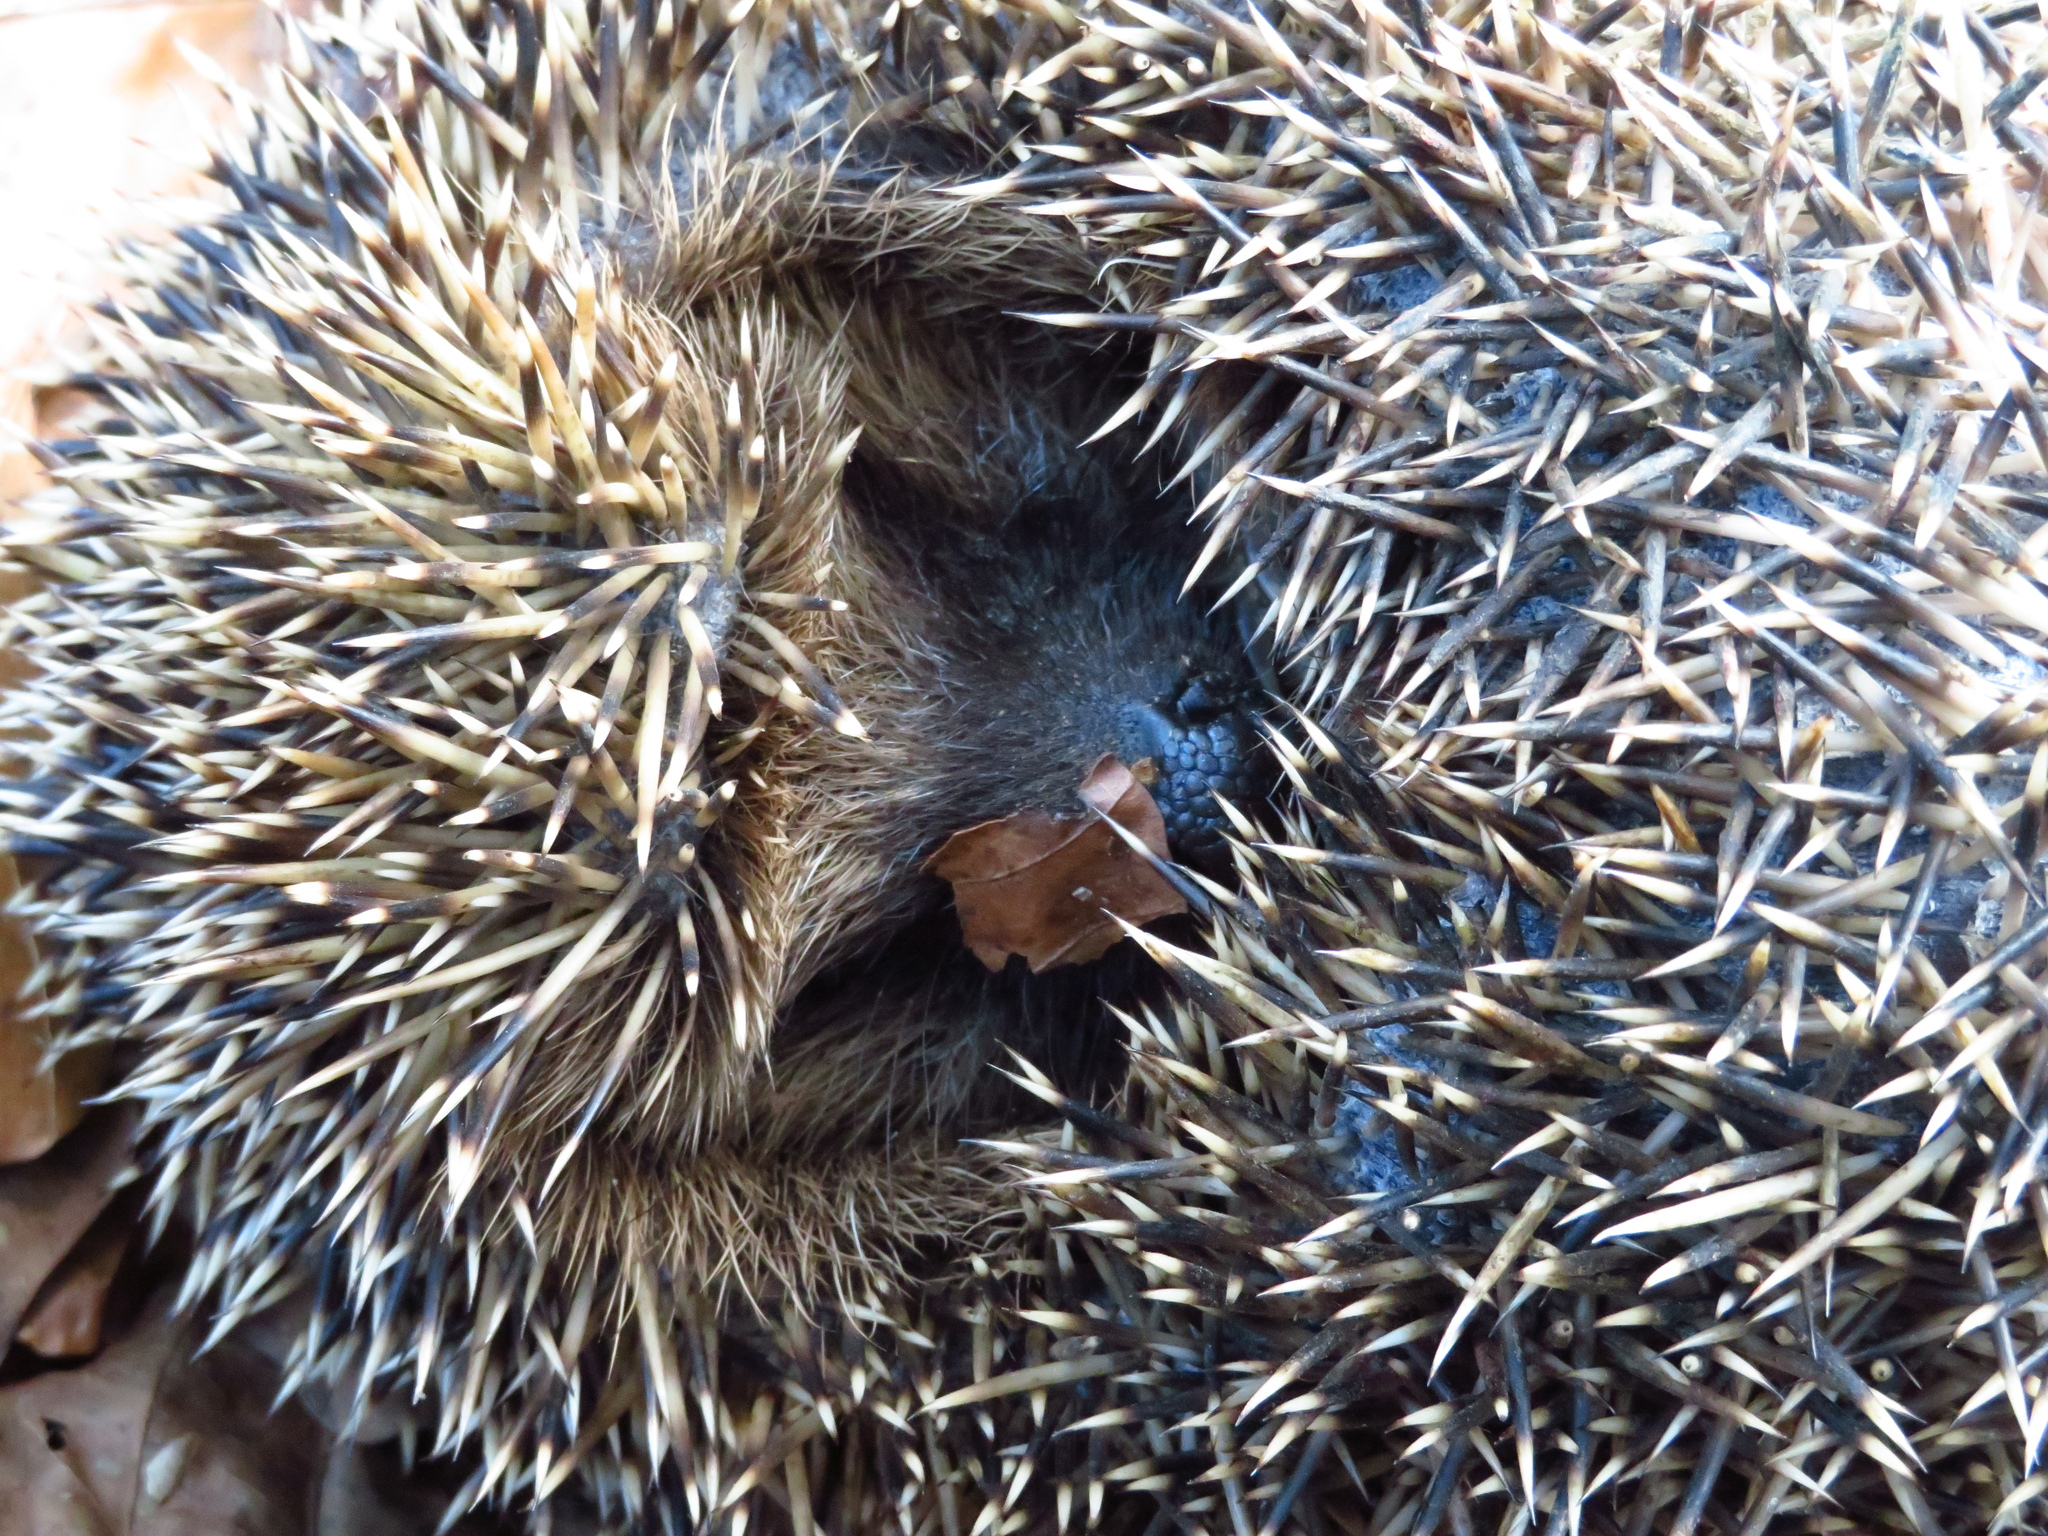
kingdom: Animalia
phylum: Chordata
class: Mammalia
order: Erinaceomorpha
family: Erinaceidae
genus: Erinaceus
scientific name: Erinaceus roumanicus
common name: Northern white-breasted hedgehog
